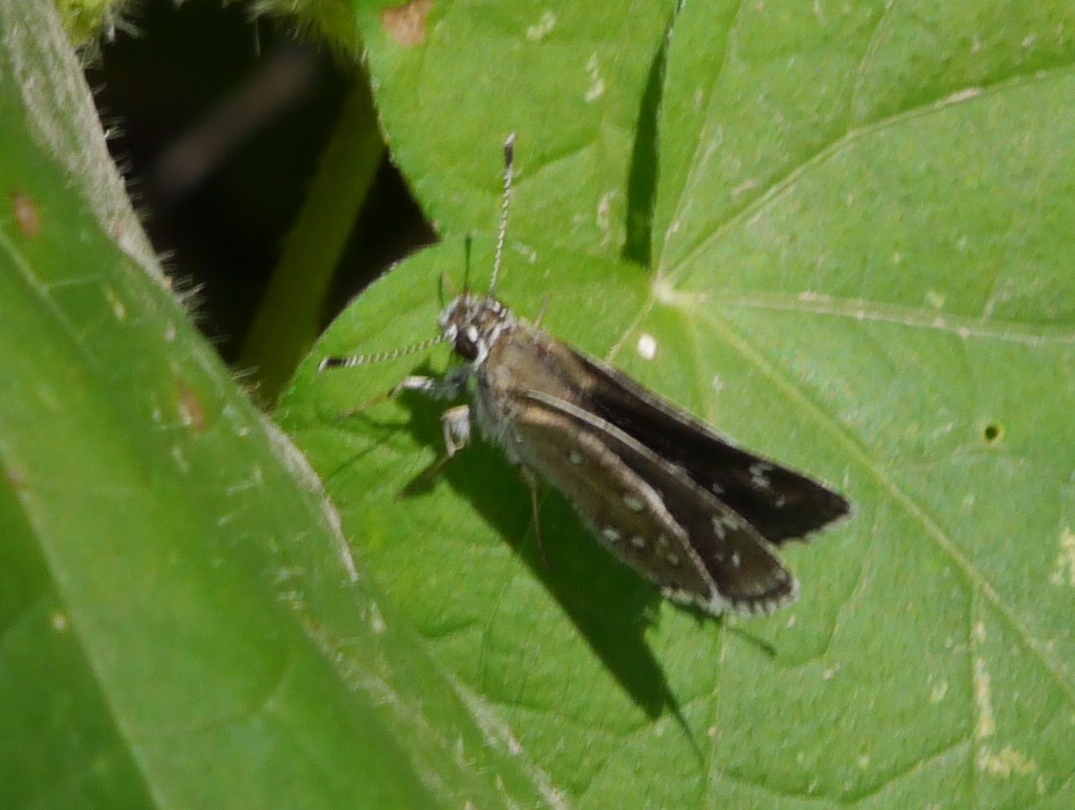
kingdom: Animalia
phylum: Arthropoda
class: Insecta
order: Lepidoptera
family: Hesperiidae
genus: Mastor
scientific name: Mastor eos
